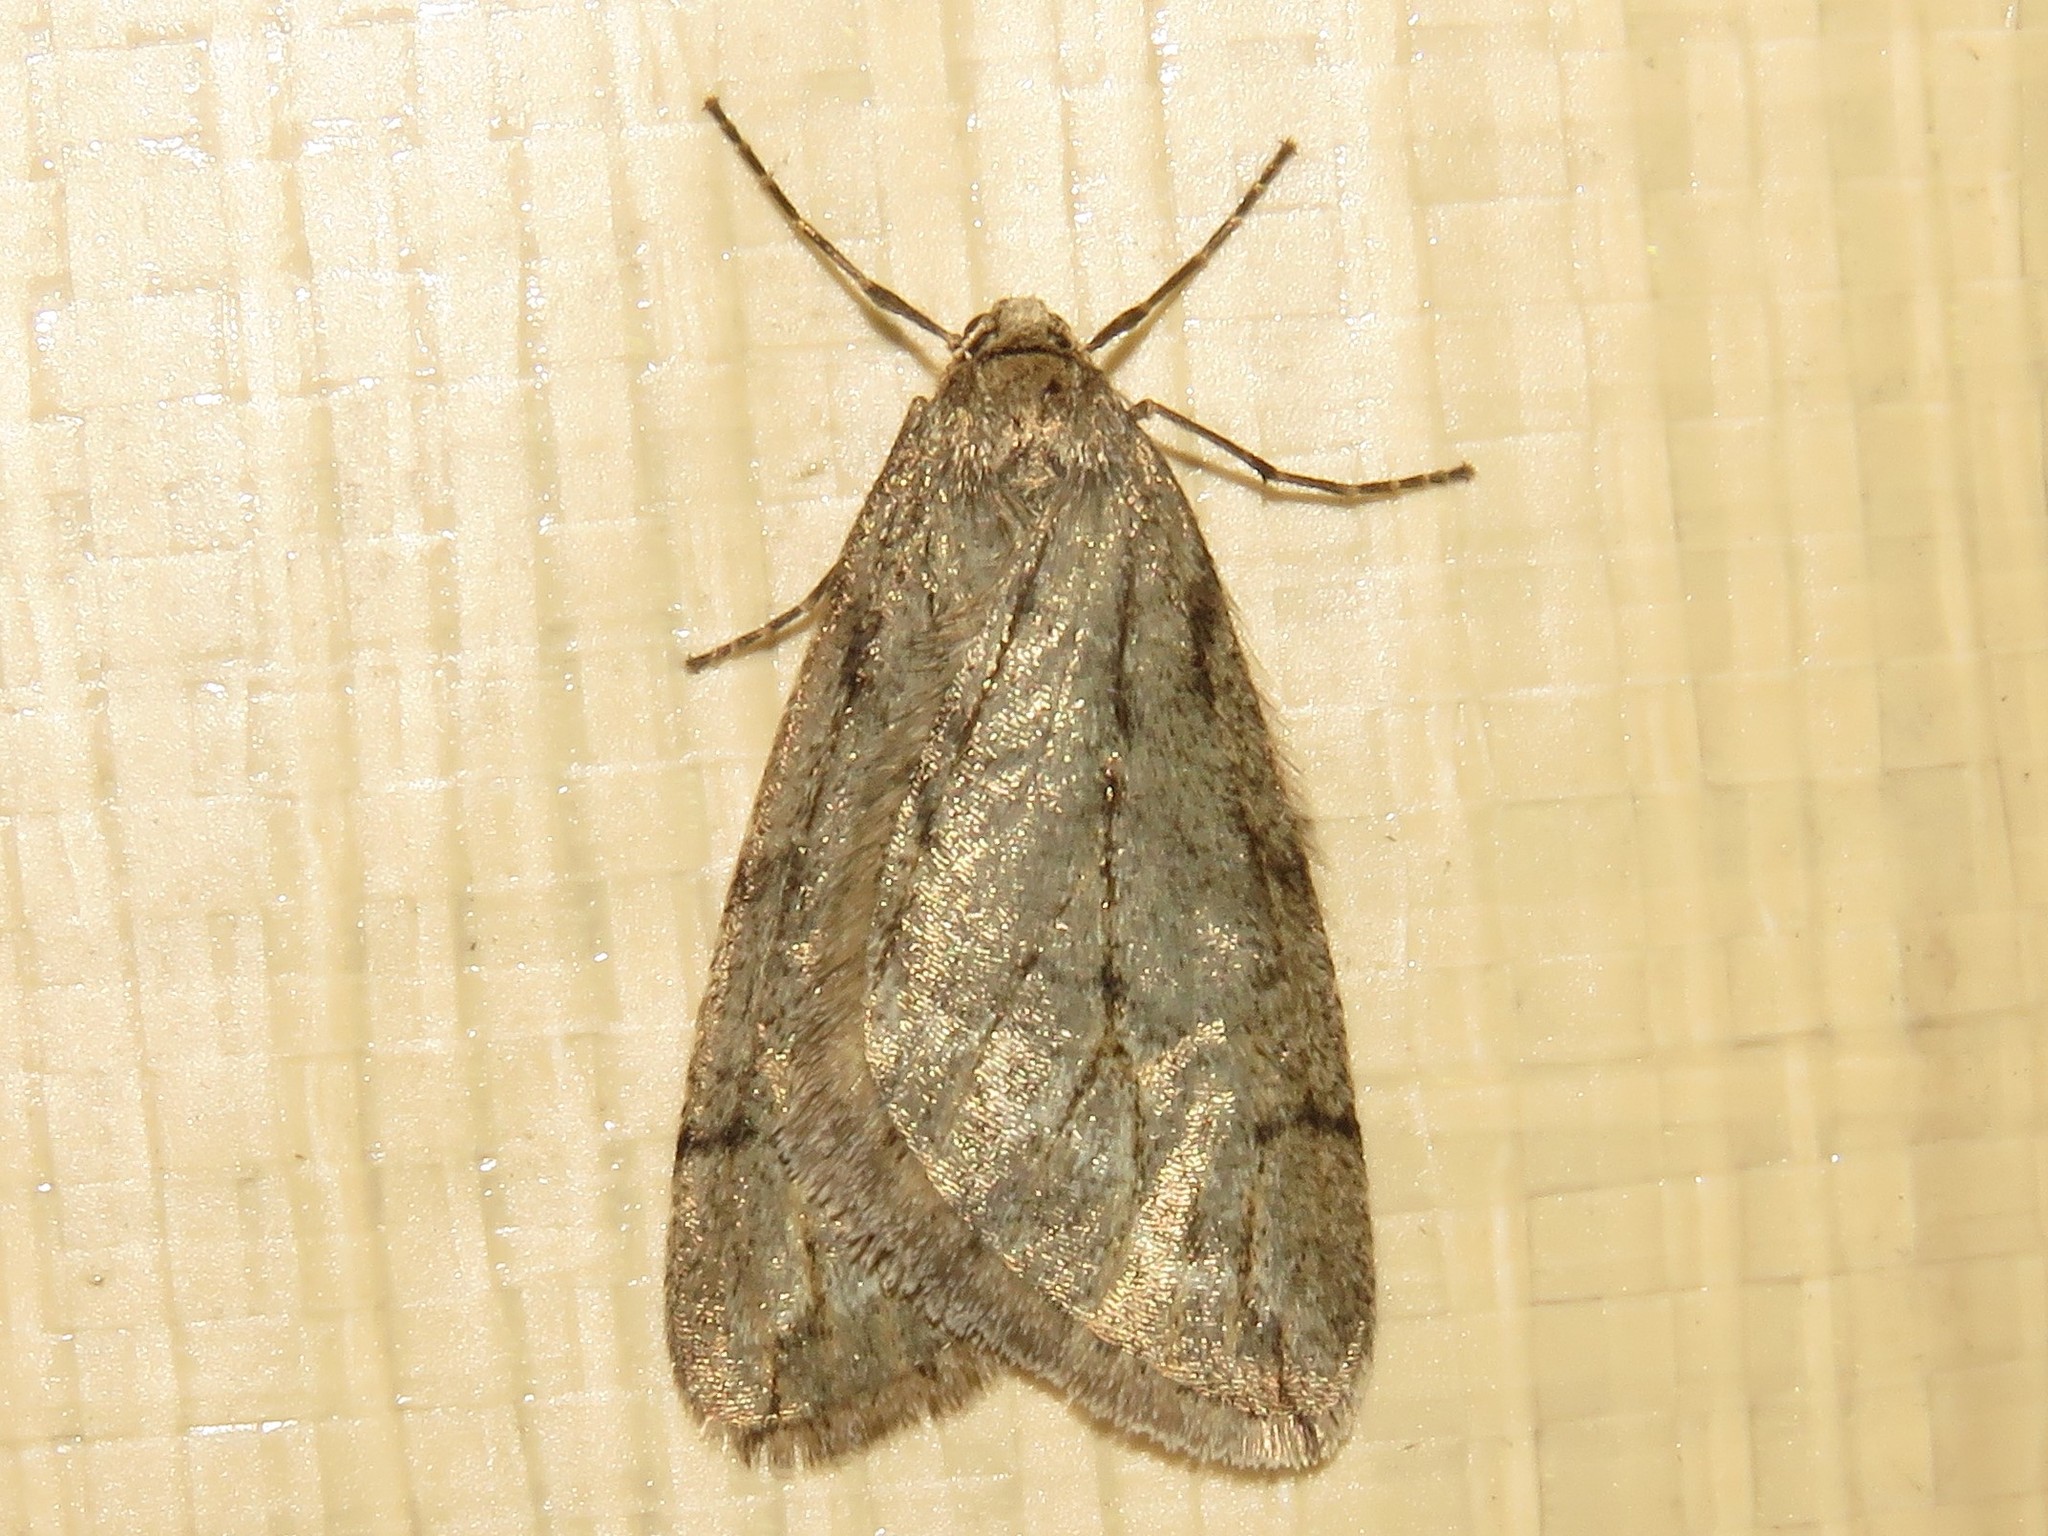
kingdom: Animalia
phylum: Arthropoda
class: Insecta
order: Lepidoptera
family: Geometridae
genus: Paleacrita
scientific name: Paleacrita vernata
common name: Spring cankerworm
